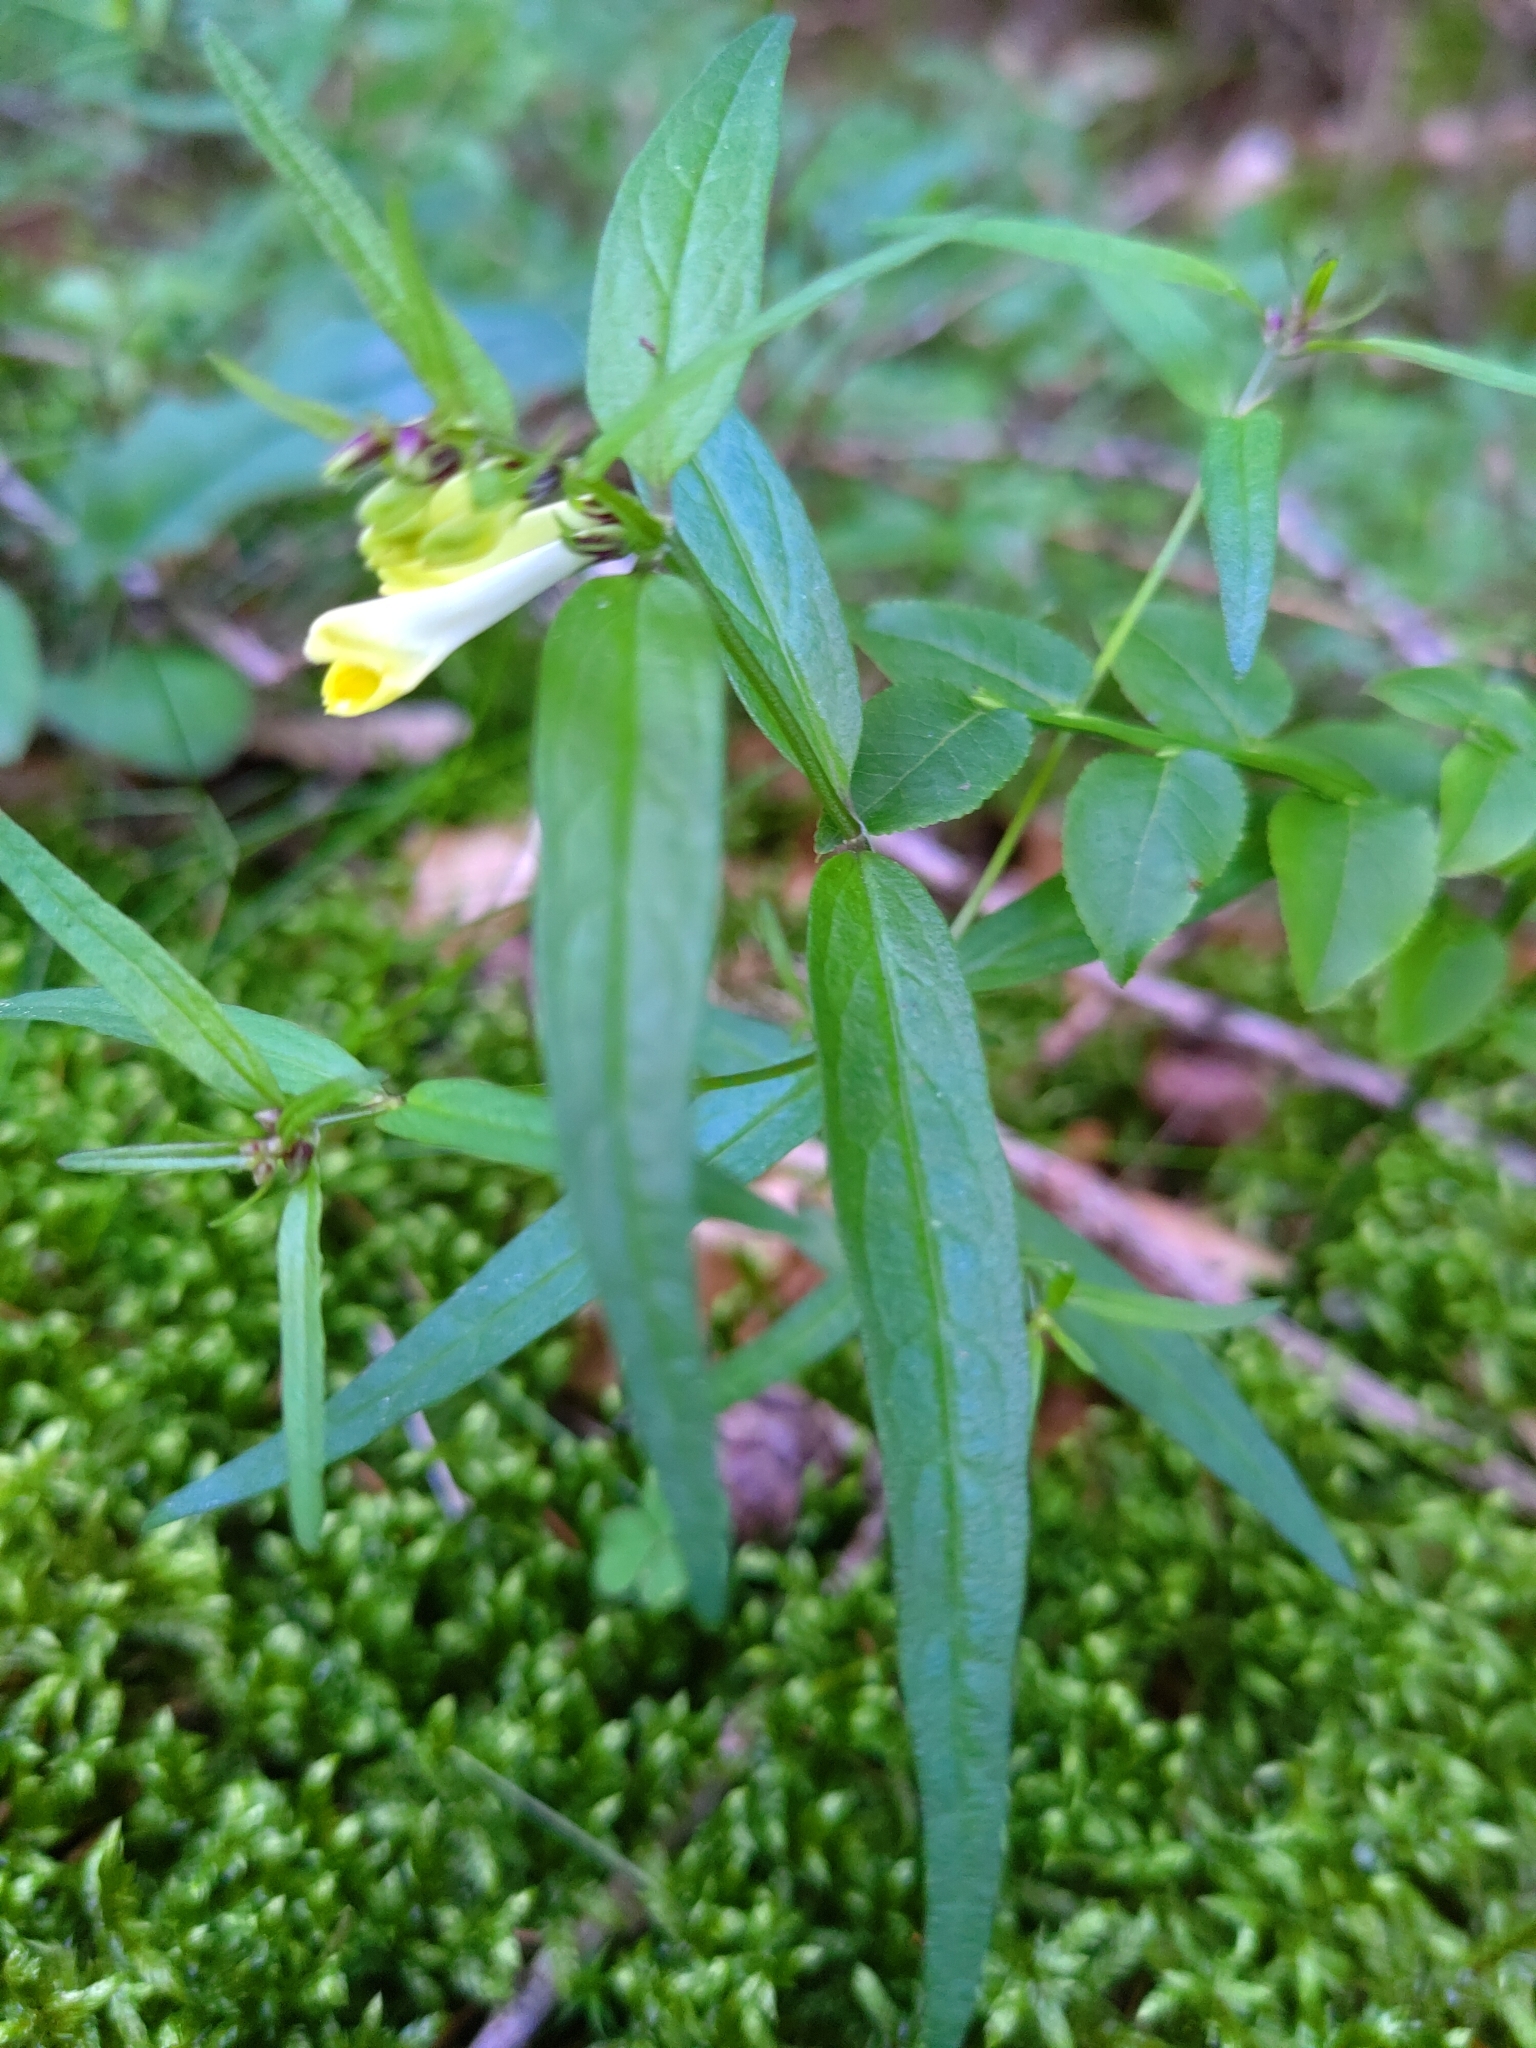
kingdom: Plantae
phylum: Tracheophyta
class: Magnoliopsida
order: Lamiales
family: Orobanchaceae
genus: Melampyrum
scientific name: Melampyrum pratense
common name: Common cow-wheat
